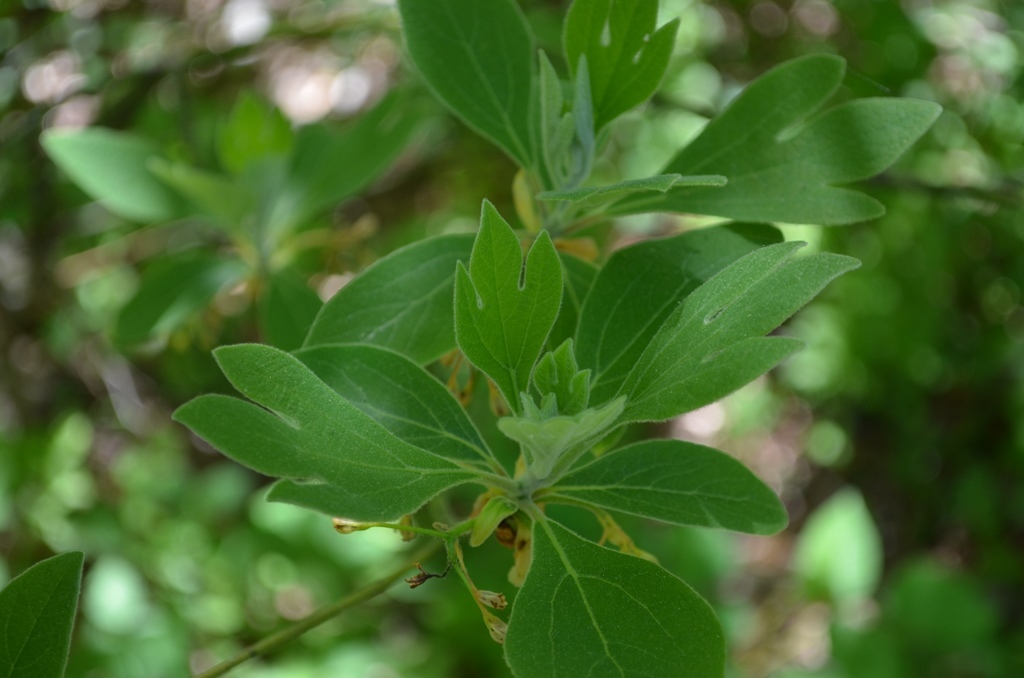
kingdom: Plantae
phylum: Tracheophyta
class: Magnoliopsida
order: Laurales
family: Lauraceae
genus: Sassafras
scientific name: Sassafras albidum
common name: Sassafras
